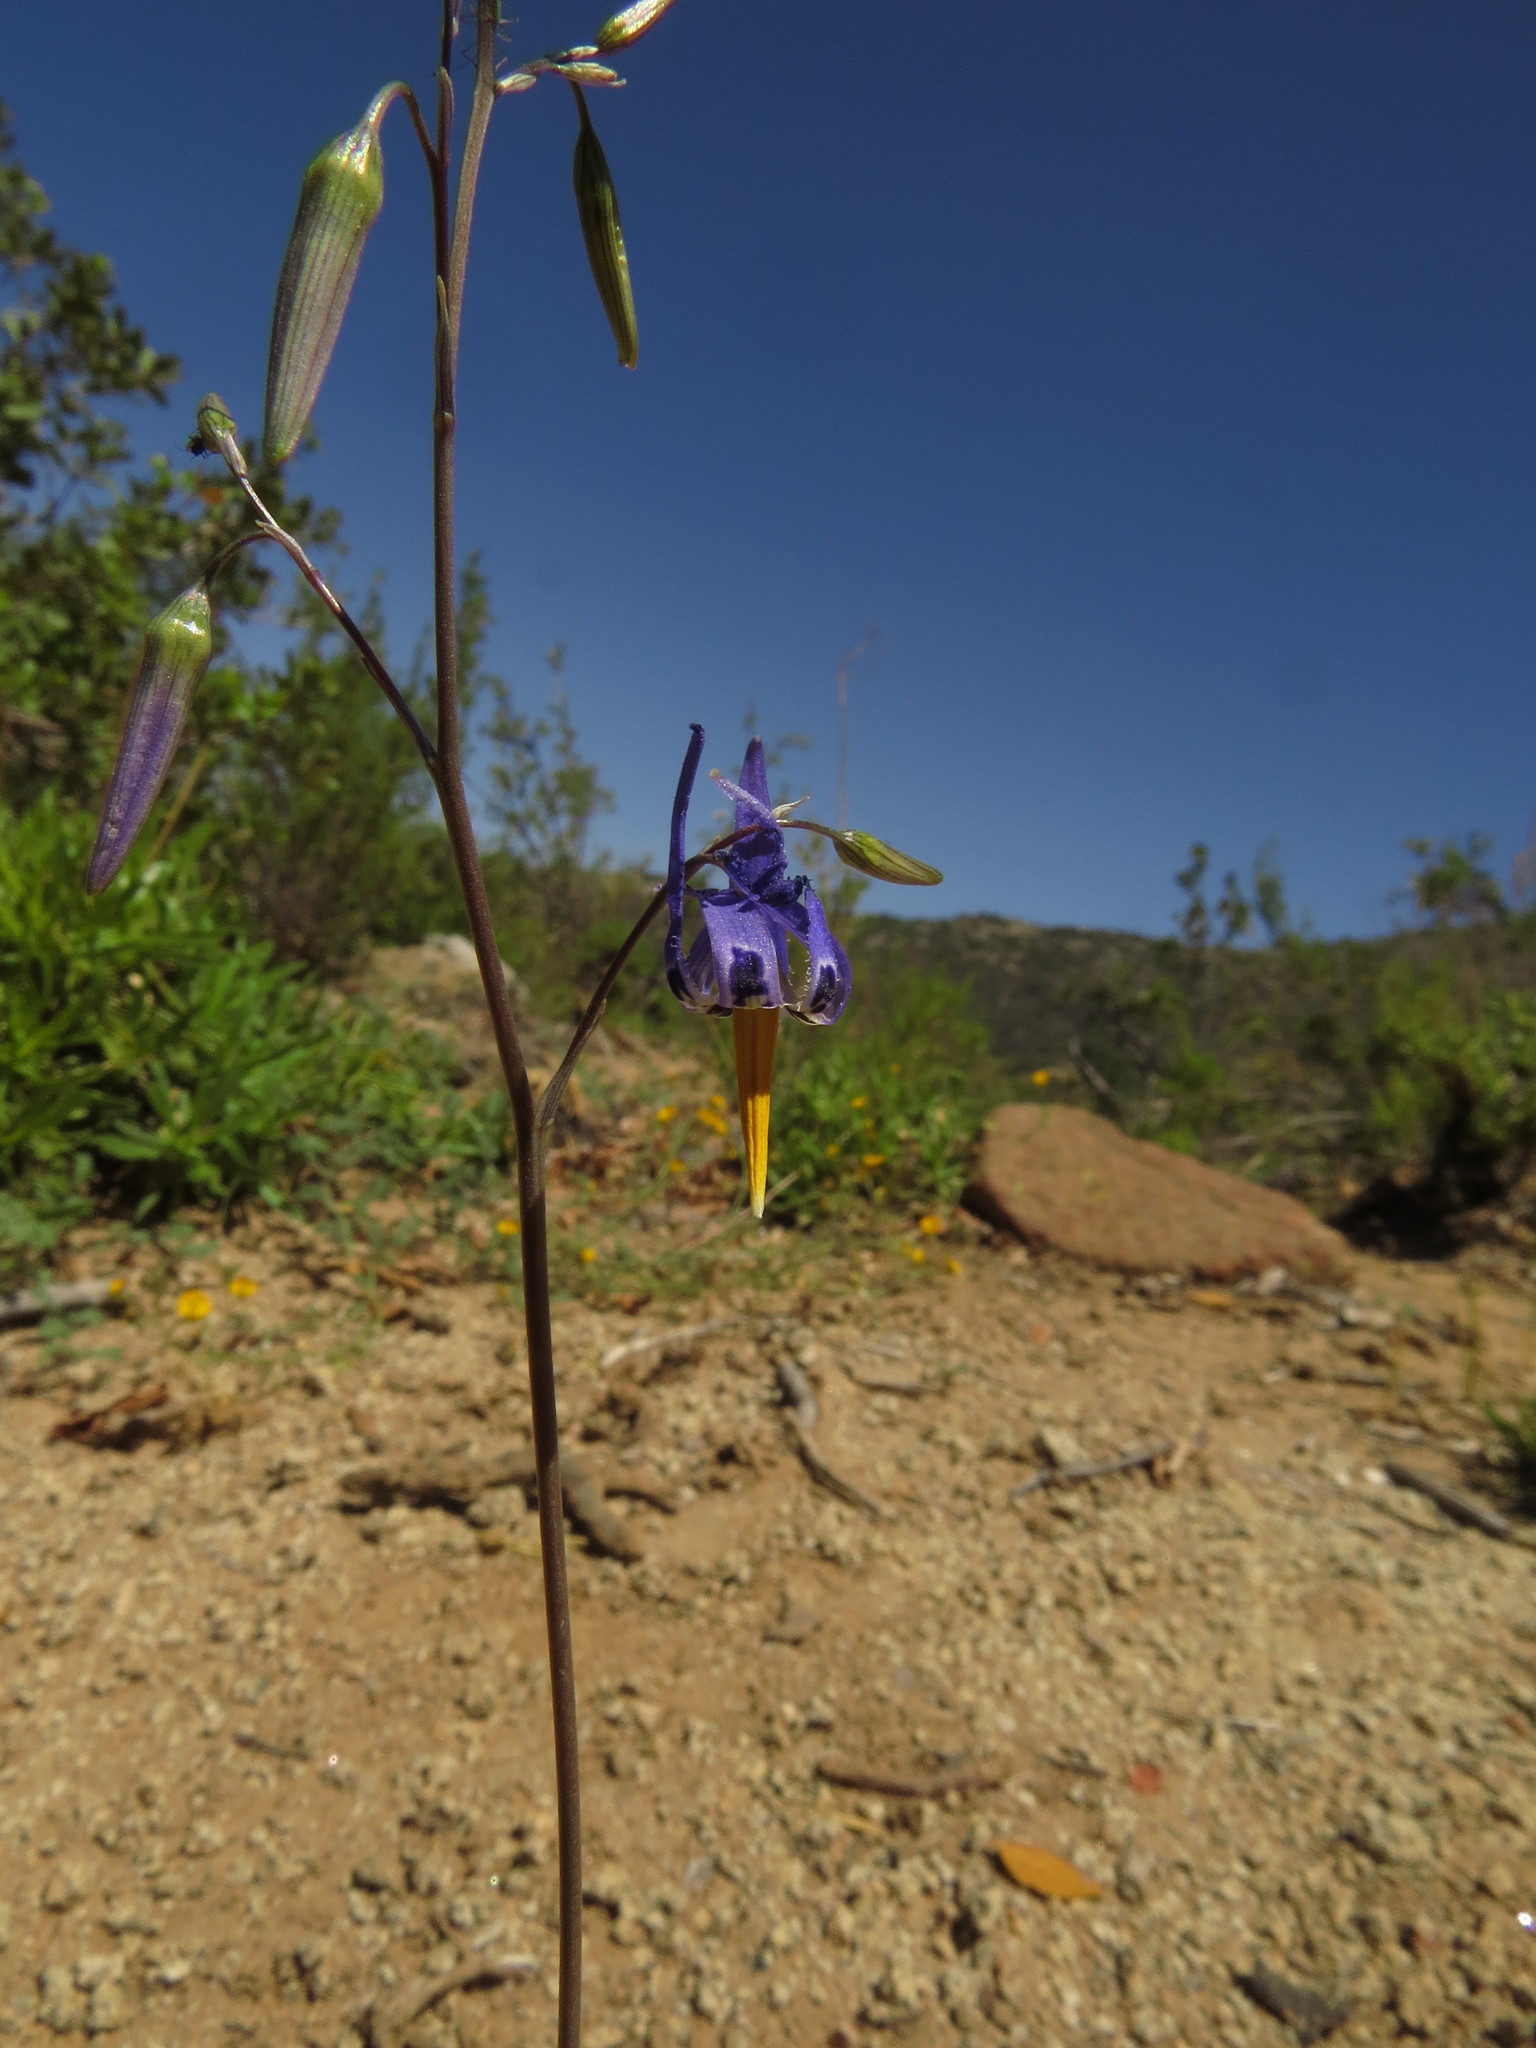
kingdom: Plantae
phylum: Tracheophyta
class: Liliopsida
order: Asparagales
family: Tecophilaeaceae
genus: Conanthera
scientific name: Conanthera bifolia
